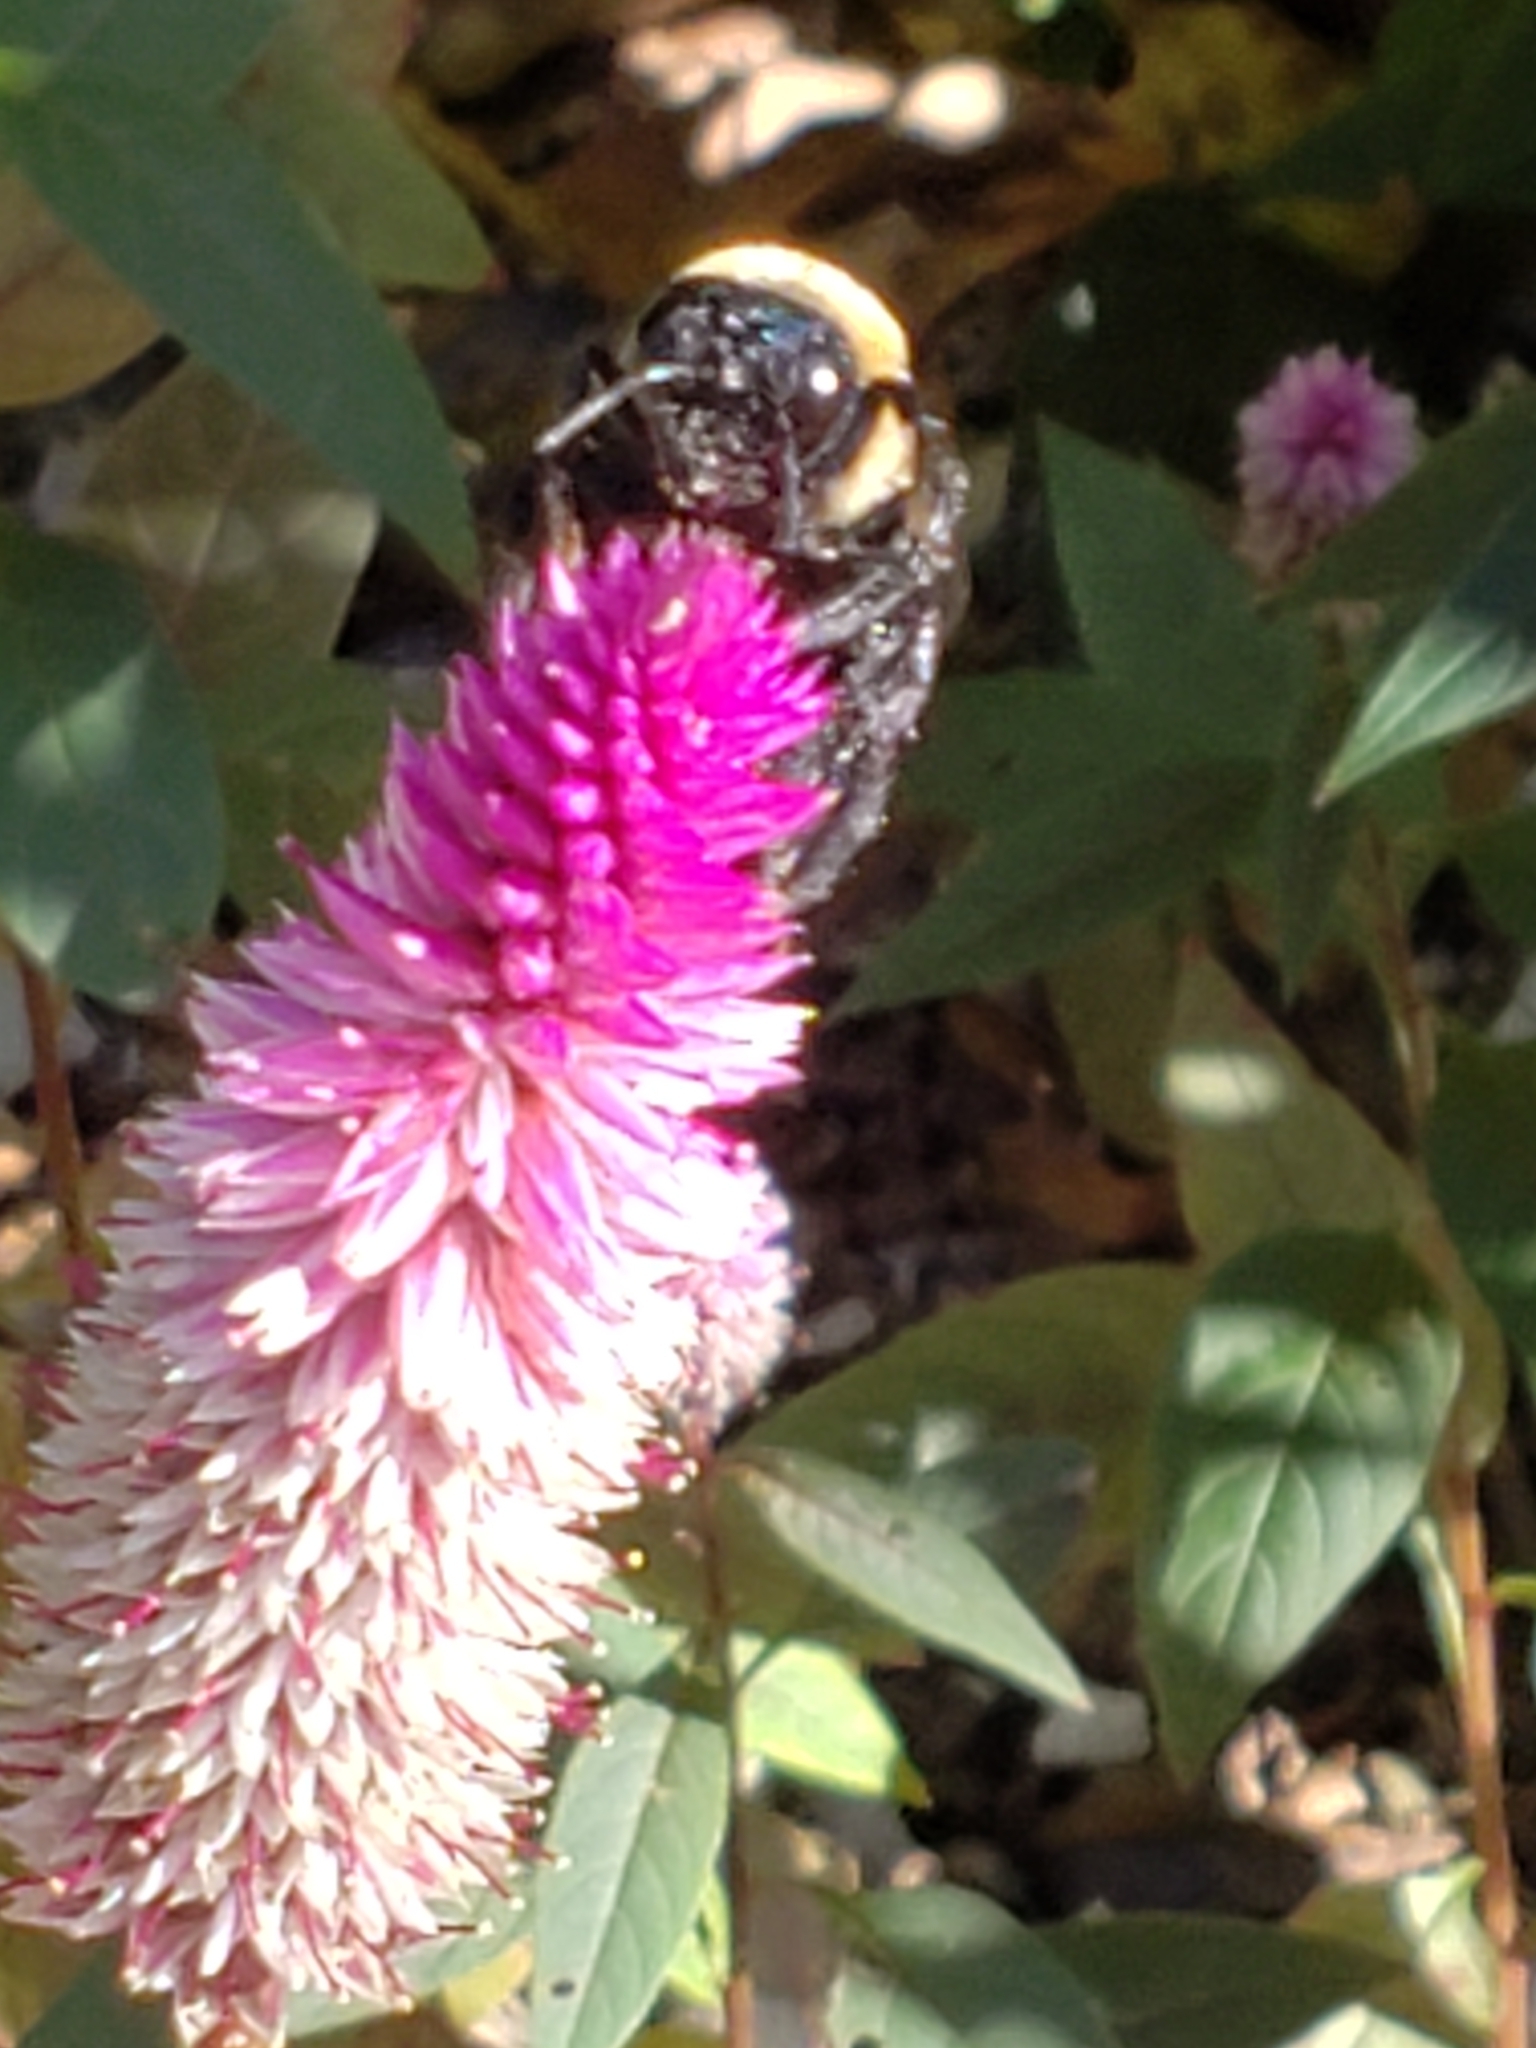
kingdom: Animalia
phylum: Arthropoda
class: Insecta
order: Hymenoptera
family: Apidae
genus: Xylocopa
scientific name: Xylocopa virginica
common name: Carpenter bee
